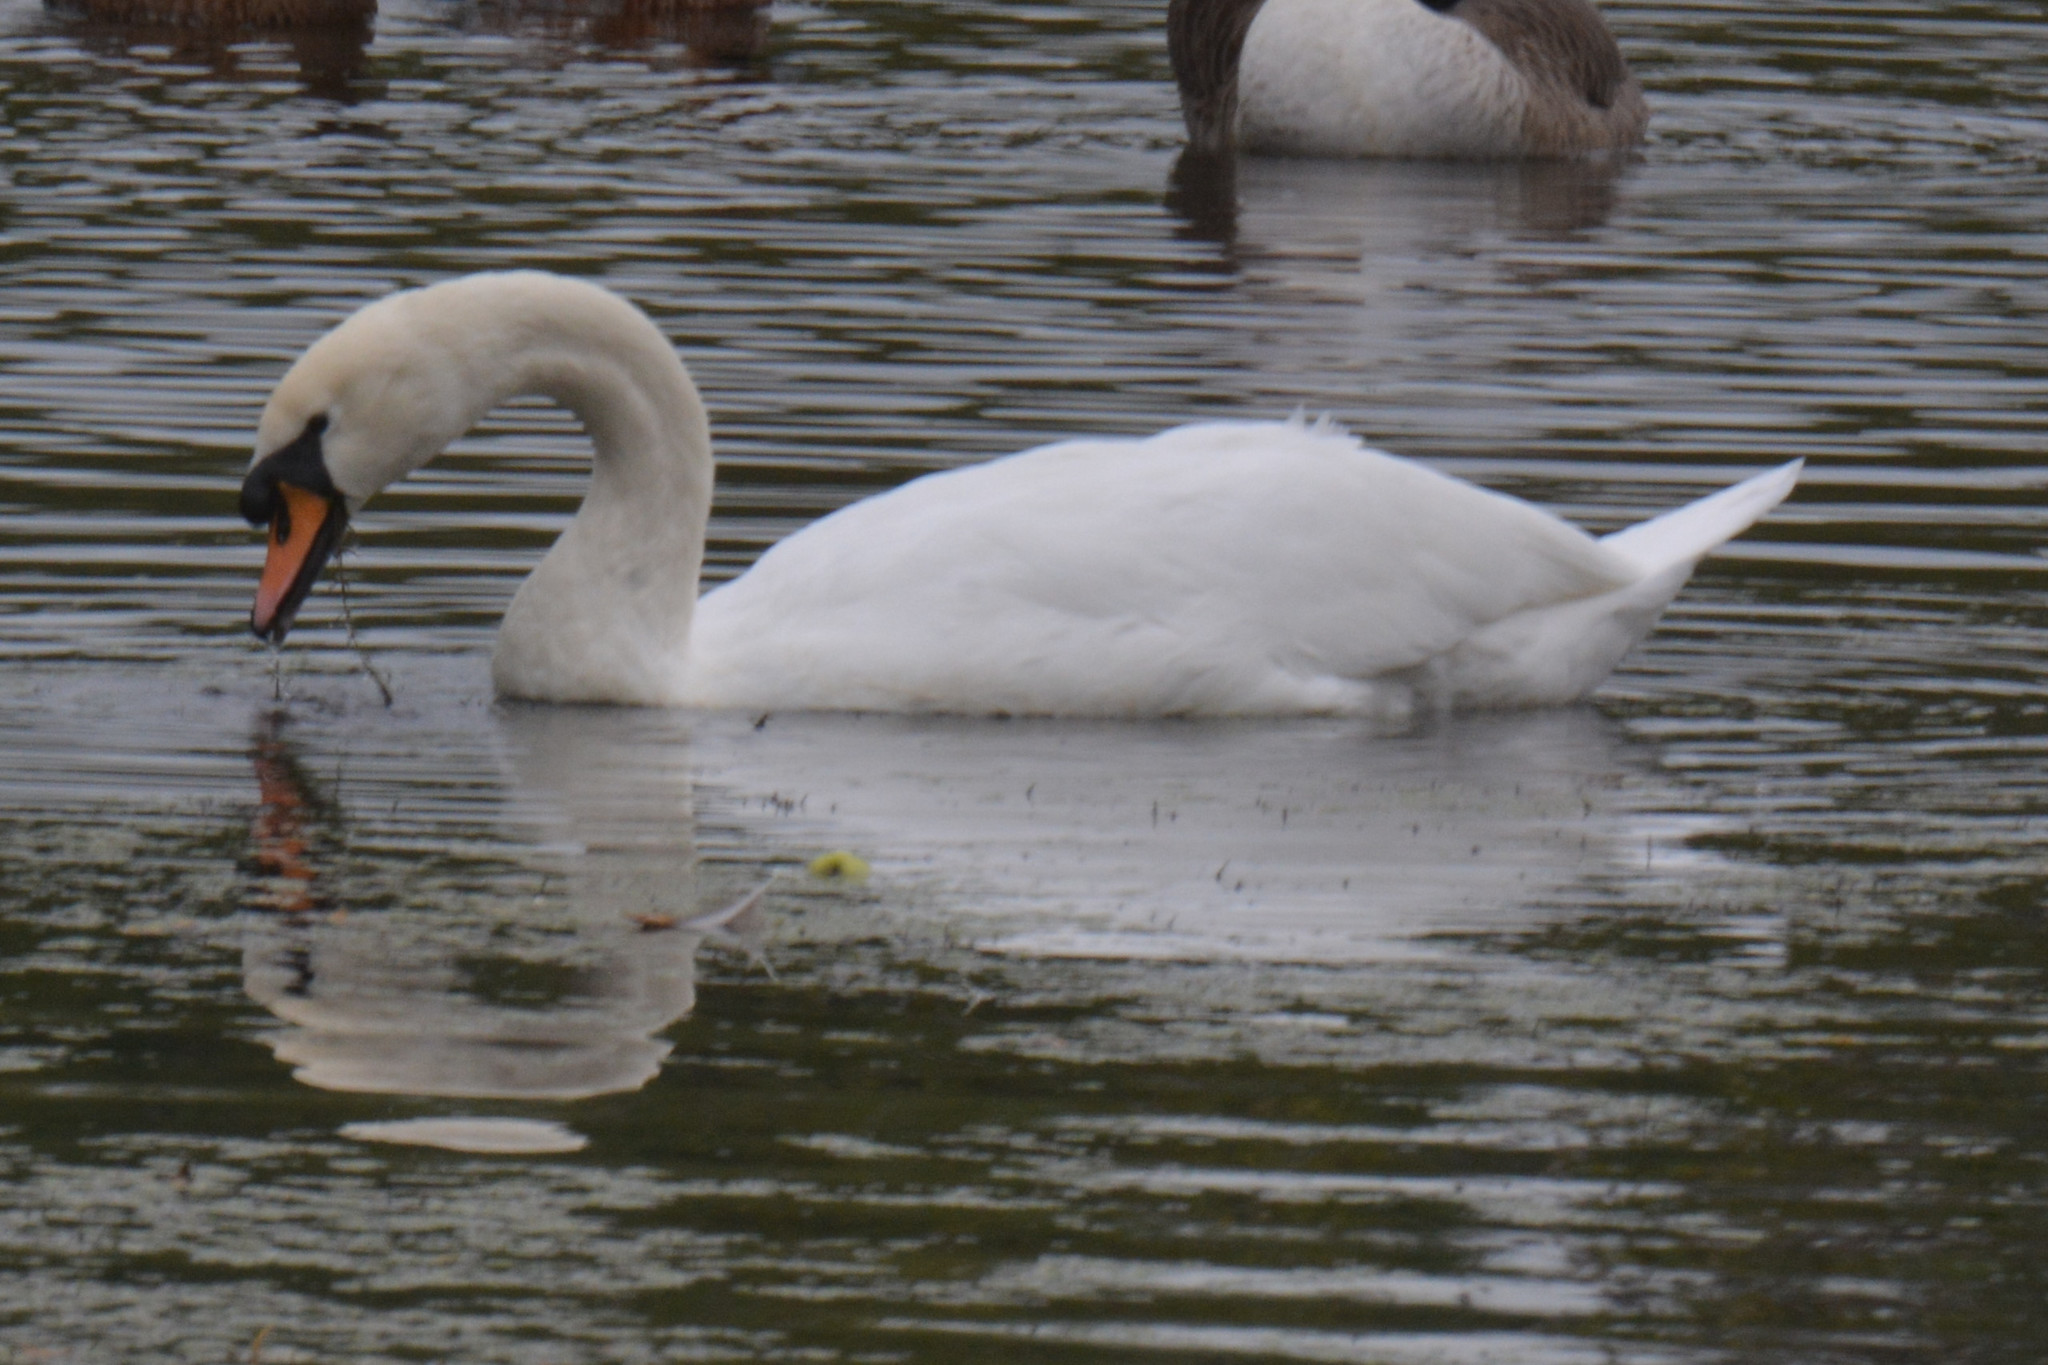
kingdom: Animalia
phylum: Chordata
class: Aves
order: Anseriformes
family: Anatidae
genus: Cygnus
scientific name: Cygnus olor
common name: Mute swan
